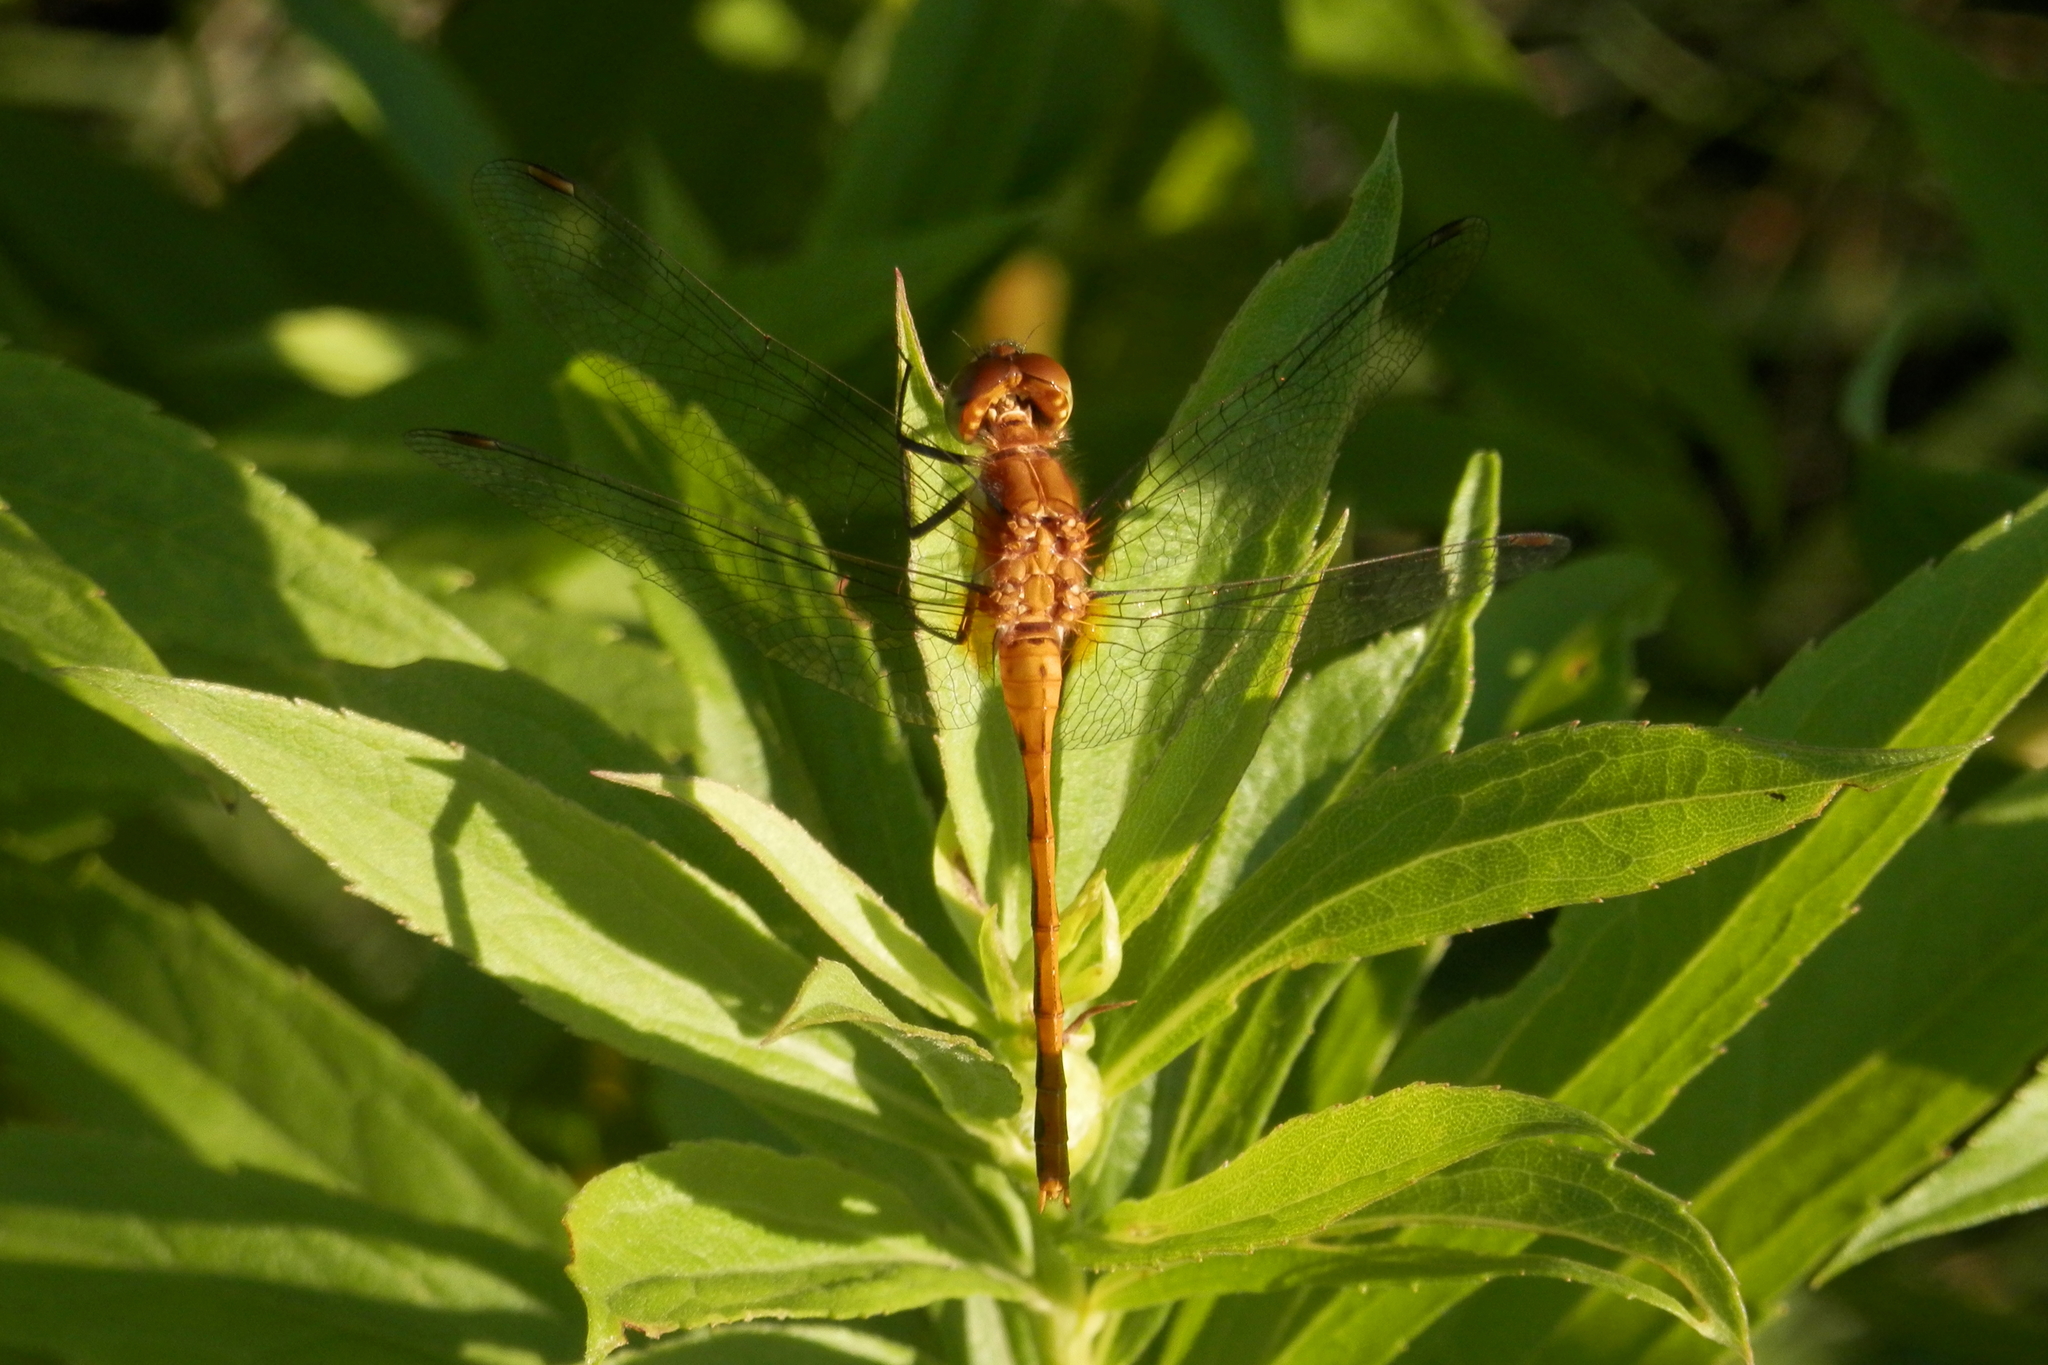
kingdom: Animalia
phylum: Arthropoda
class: Insecta
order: Odonata
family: Libellulidae
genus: Sympetrum
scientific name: Sympetrum
